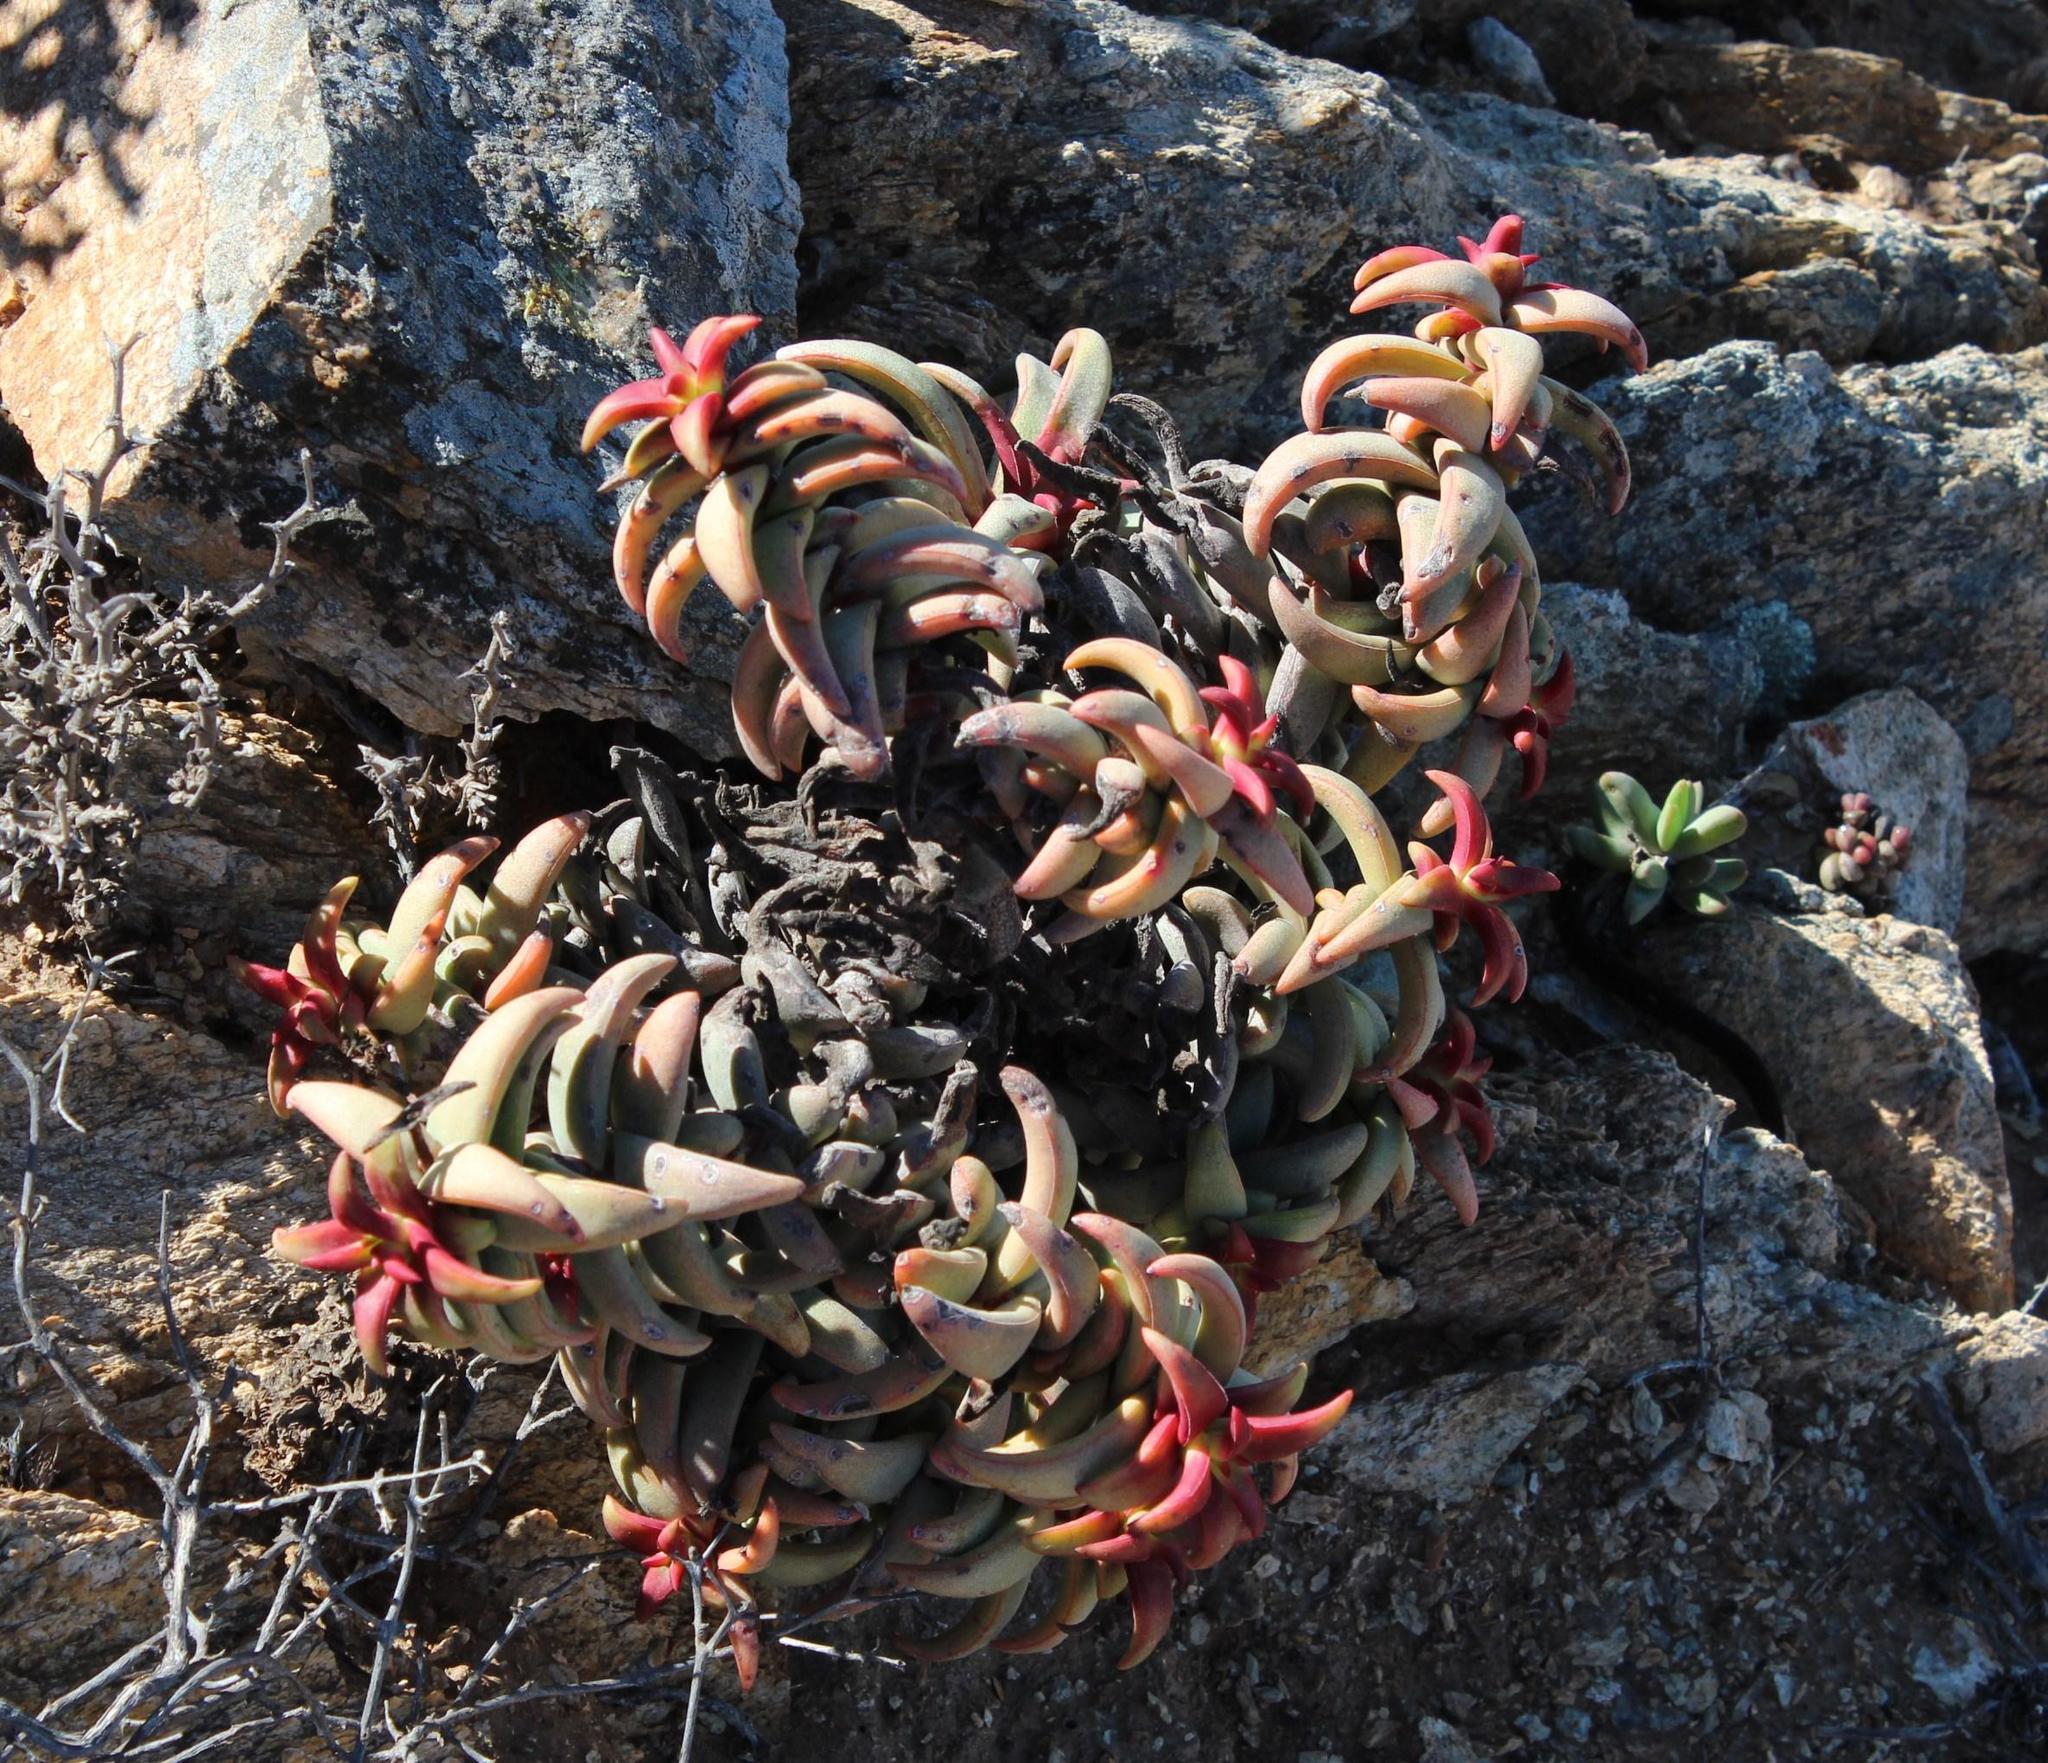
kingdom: Plantae
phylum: Tracheophyta
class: Magnoliopsida
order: Saxifragales
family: Crassulaceae
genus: Crassula
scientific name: Crassula fusca
